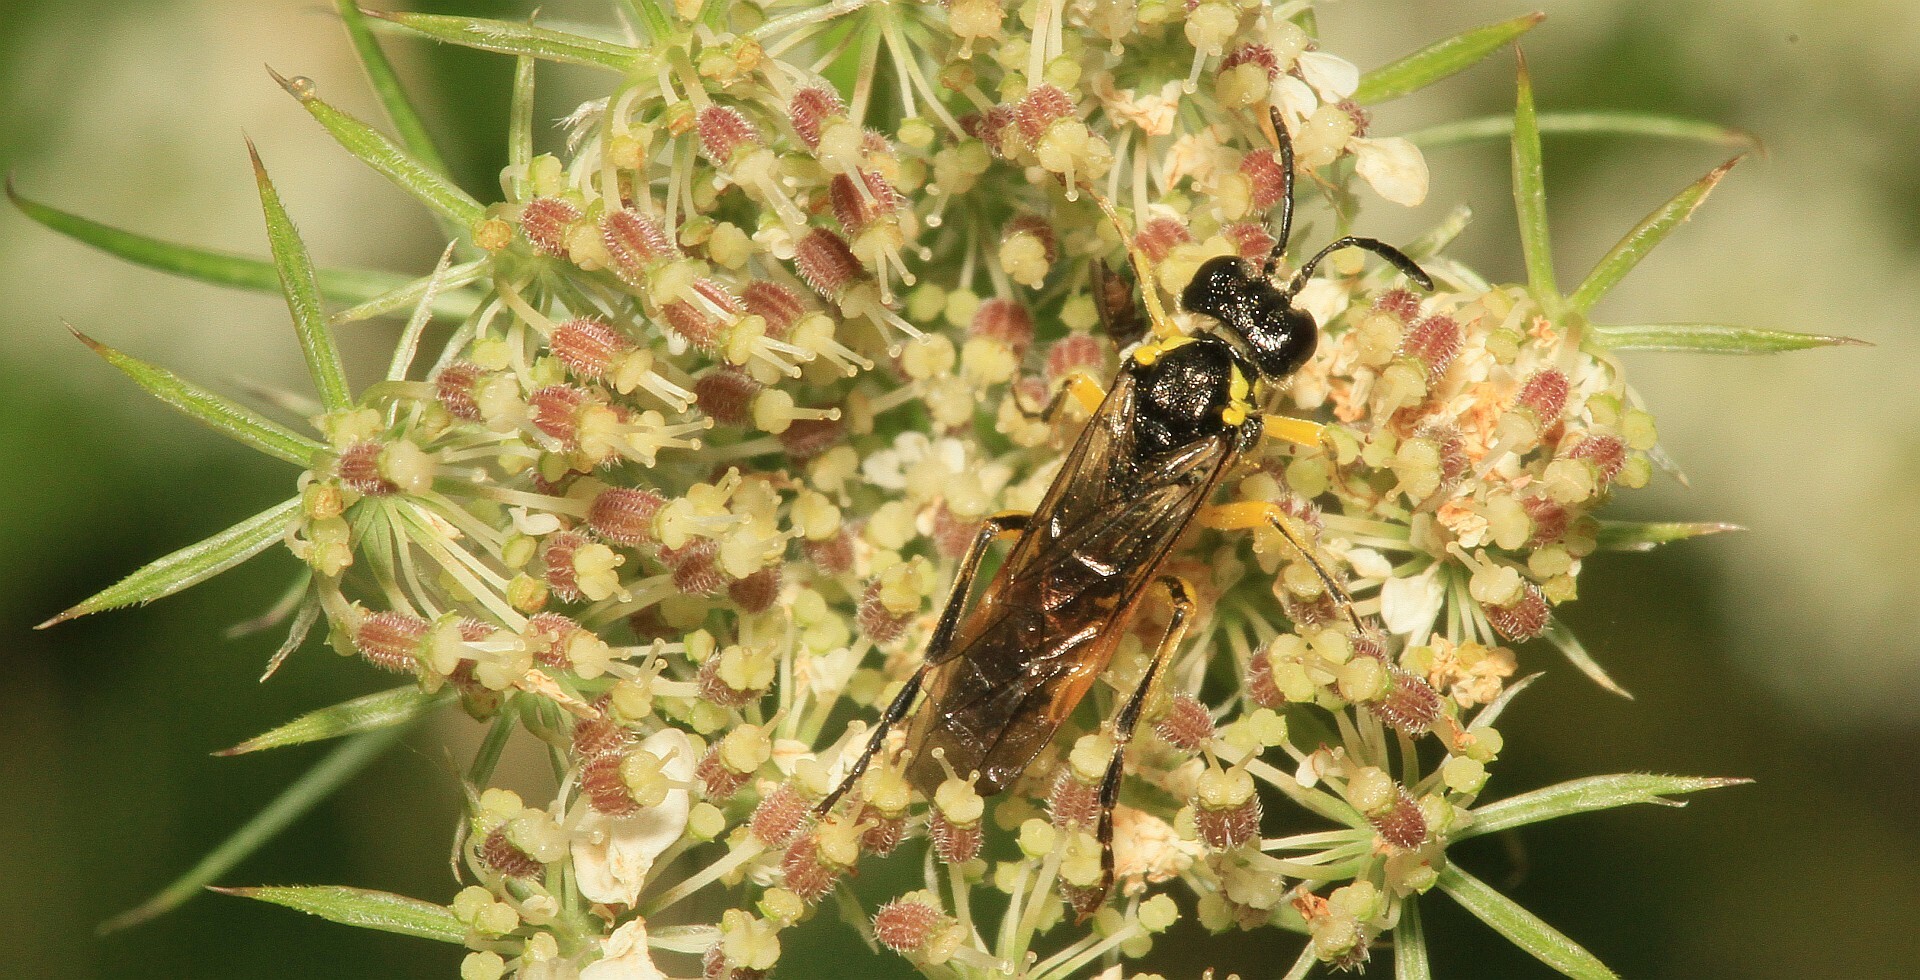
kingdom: Animalia
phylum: Arthropoda
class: Insecta
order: Hymenoptera
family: Tenthredinidae
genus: Tenthredo
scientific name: Tenthredo notha
